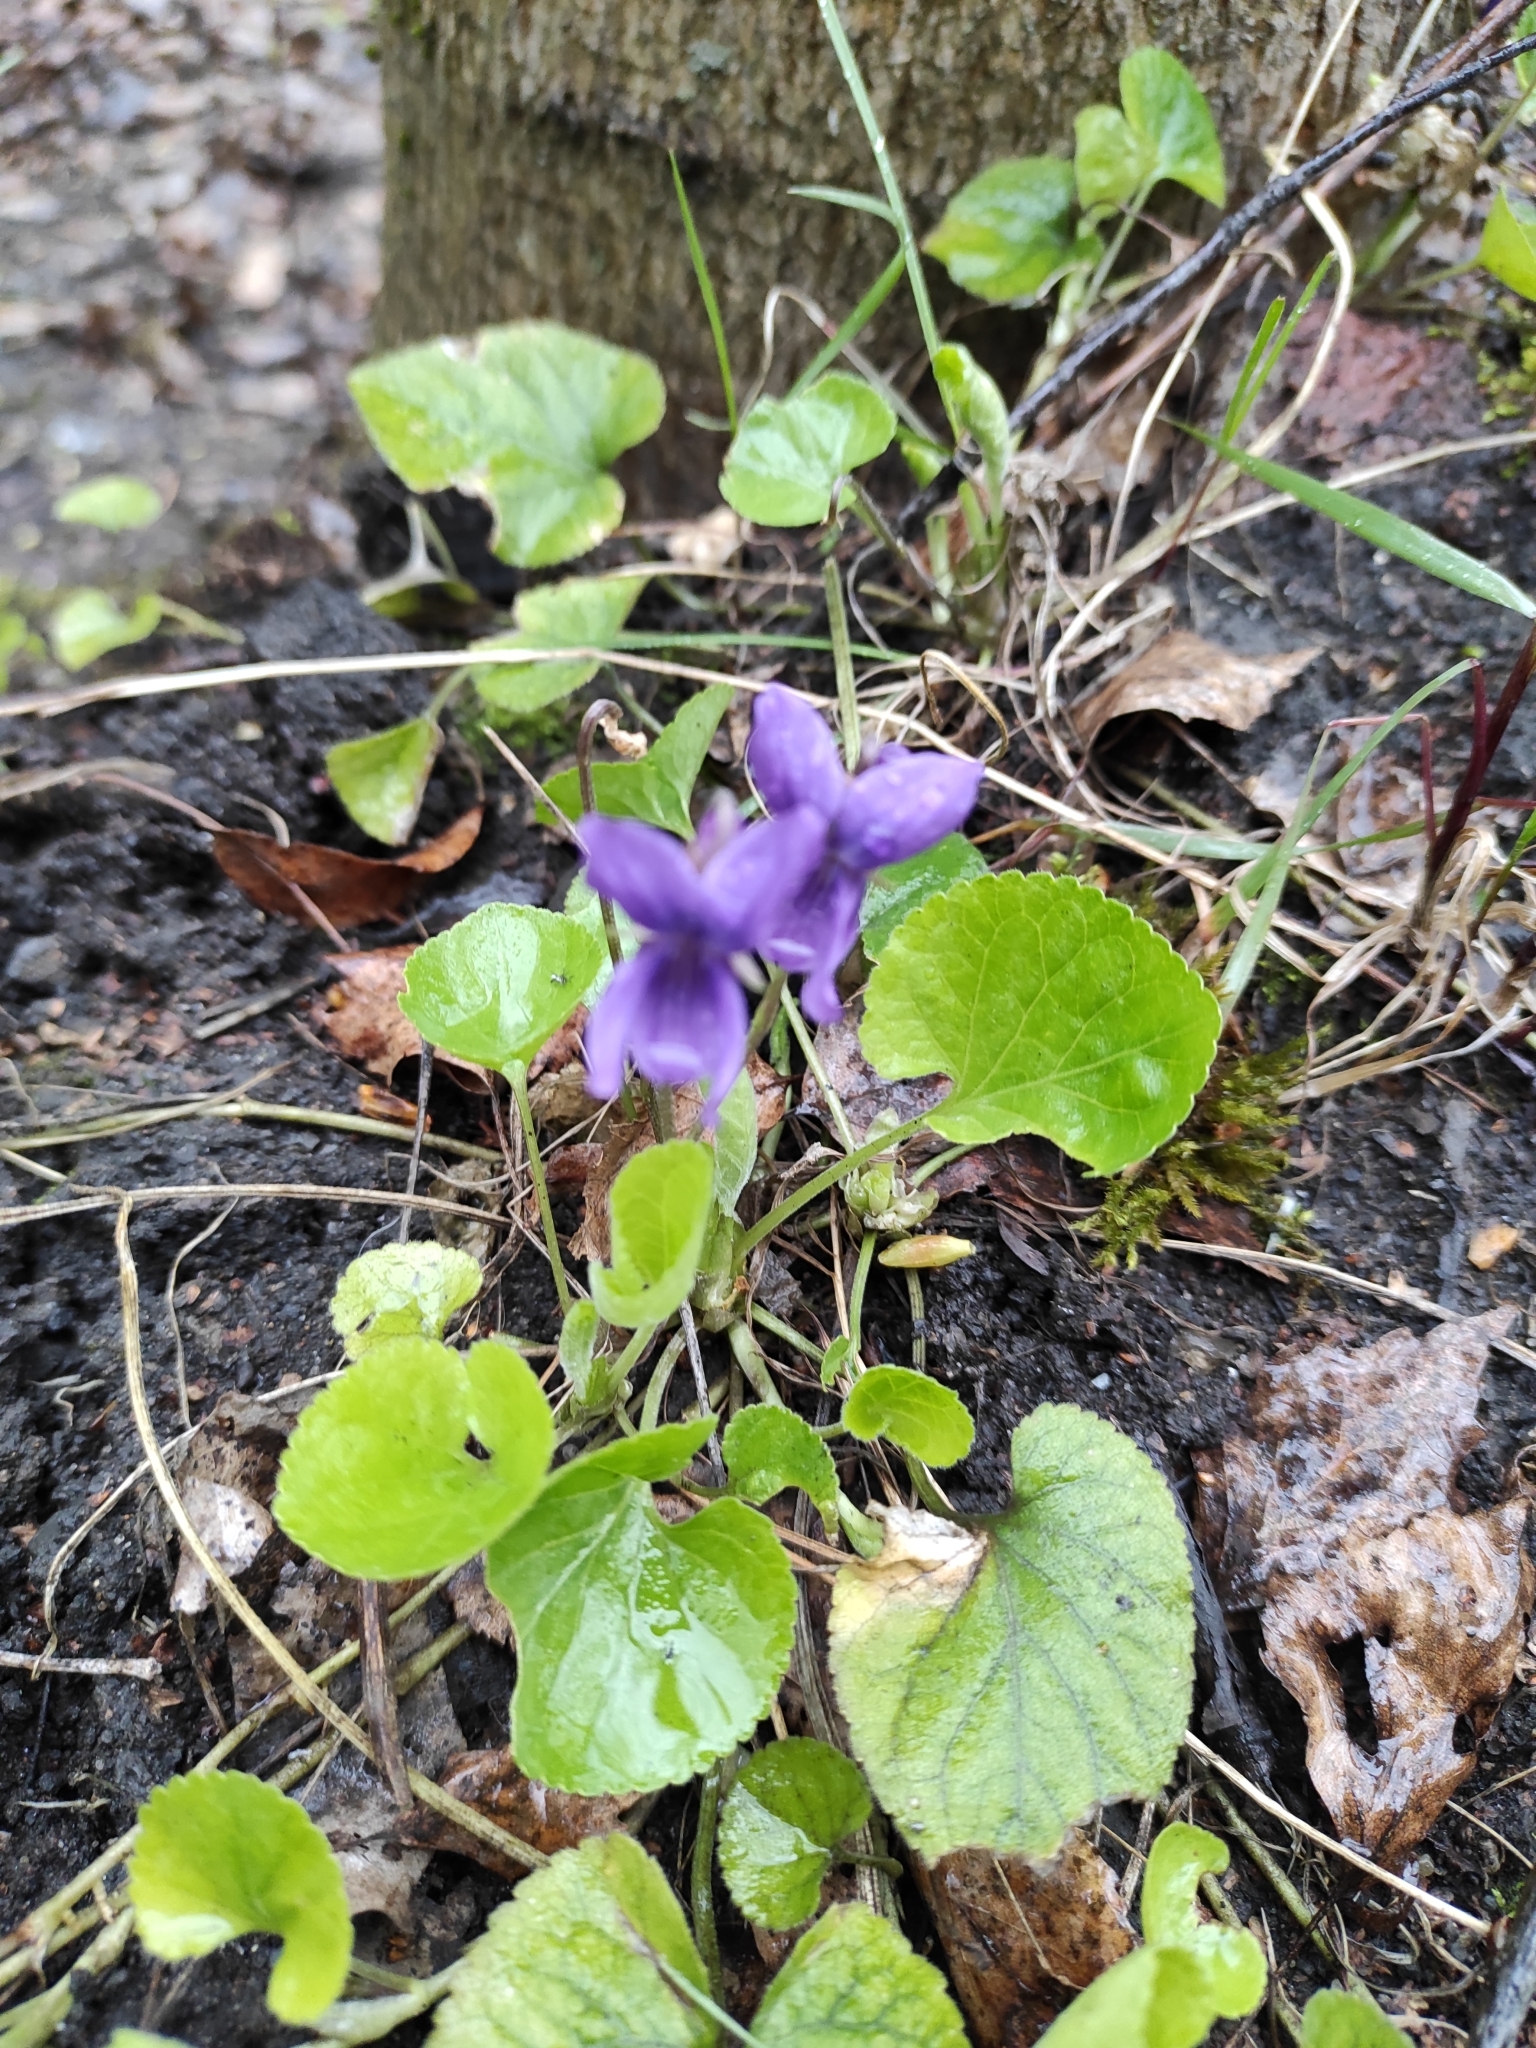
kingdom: Plantae
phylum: Tracheophyta
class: Magnoliopsida
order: Malpighiales
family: Violaceae
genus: Viola
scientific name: Viola odorata
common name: Sweet violet
